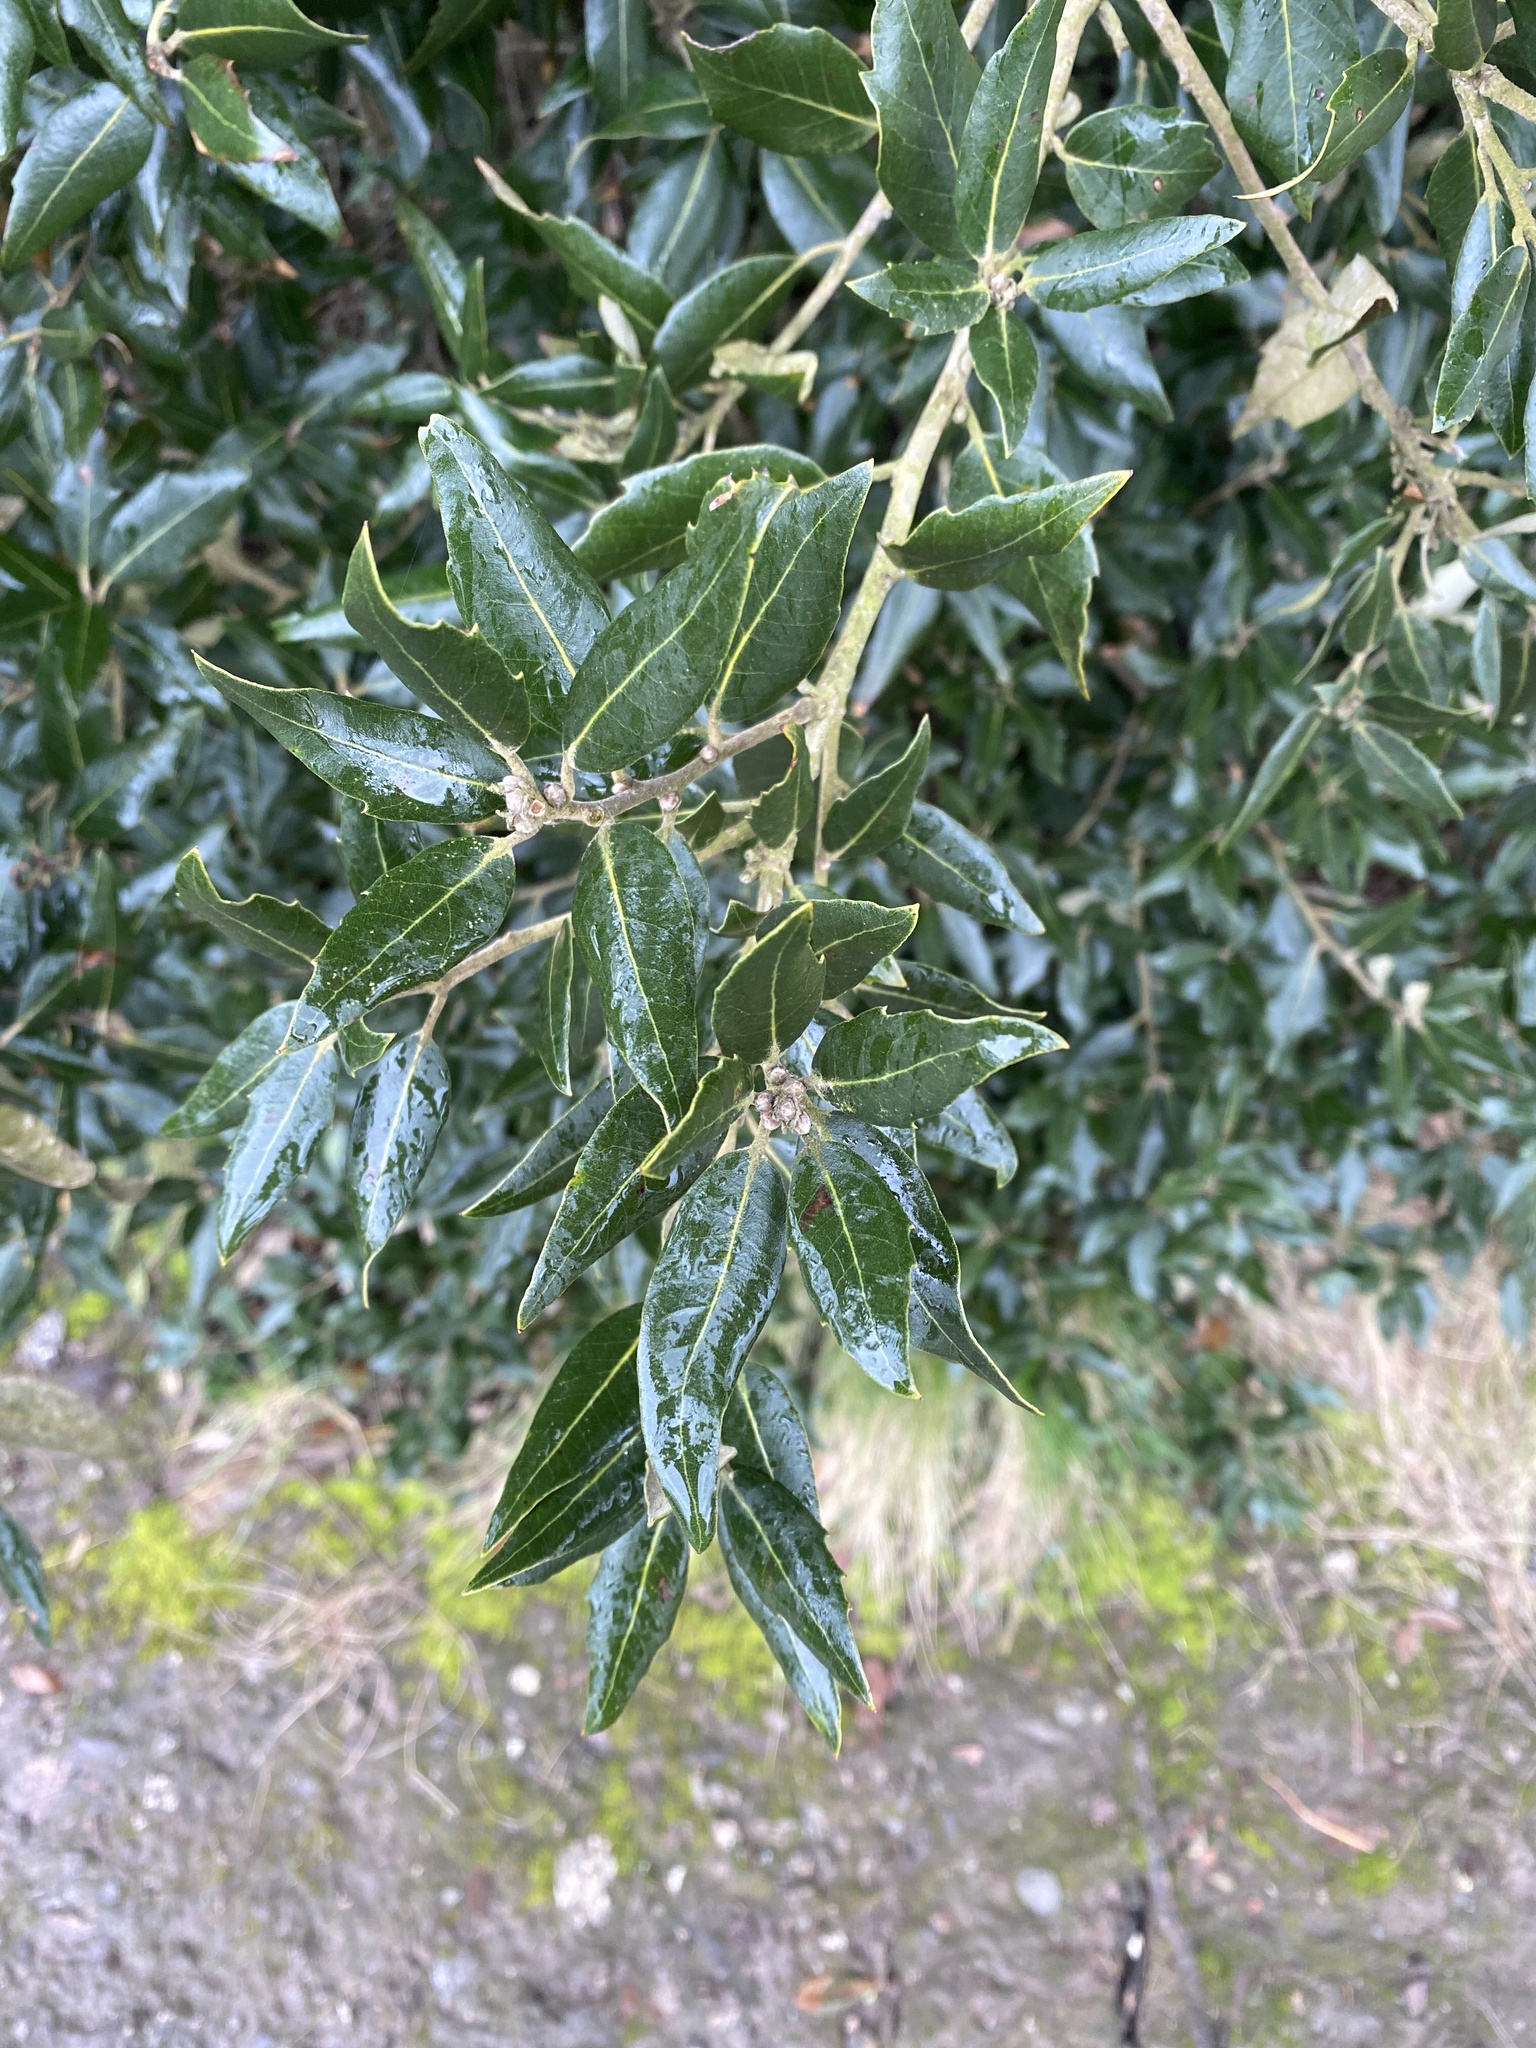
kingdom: Plantae
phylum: Tracheophyta
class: Magnoliopsida
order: Fagales
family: Fagaceae
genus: Quercus
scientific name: Quercus ilex
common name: Evergreen oak
